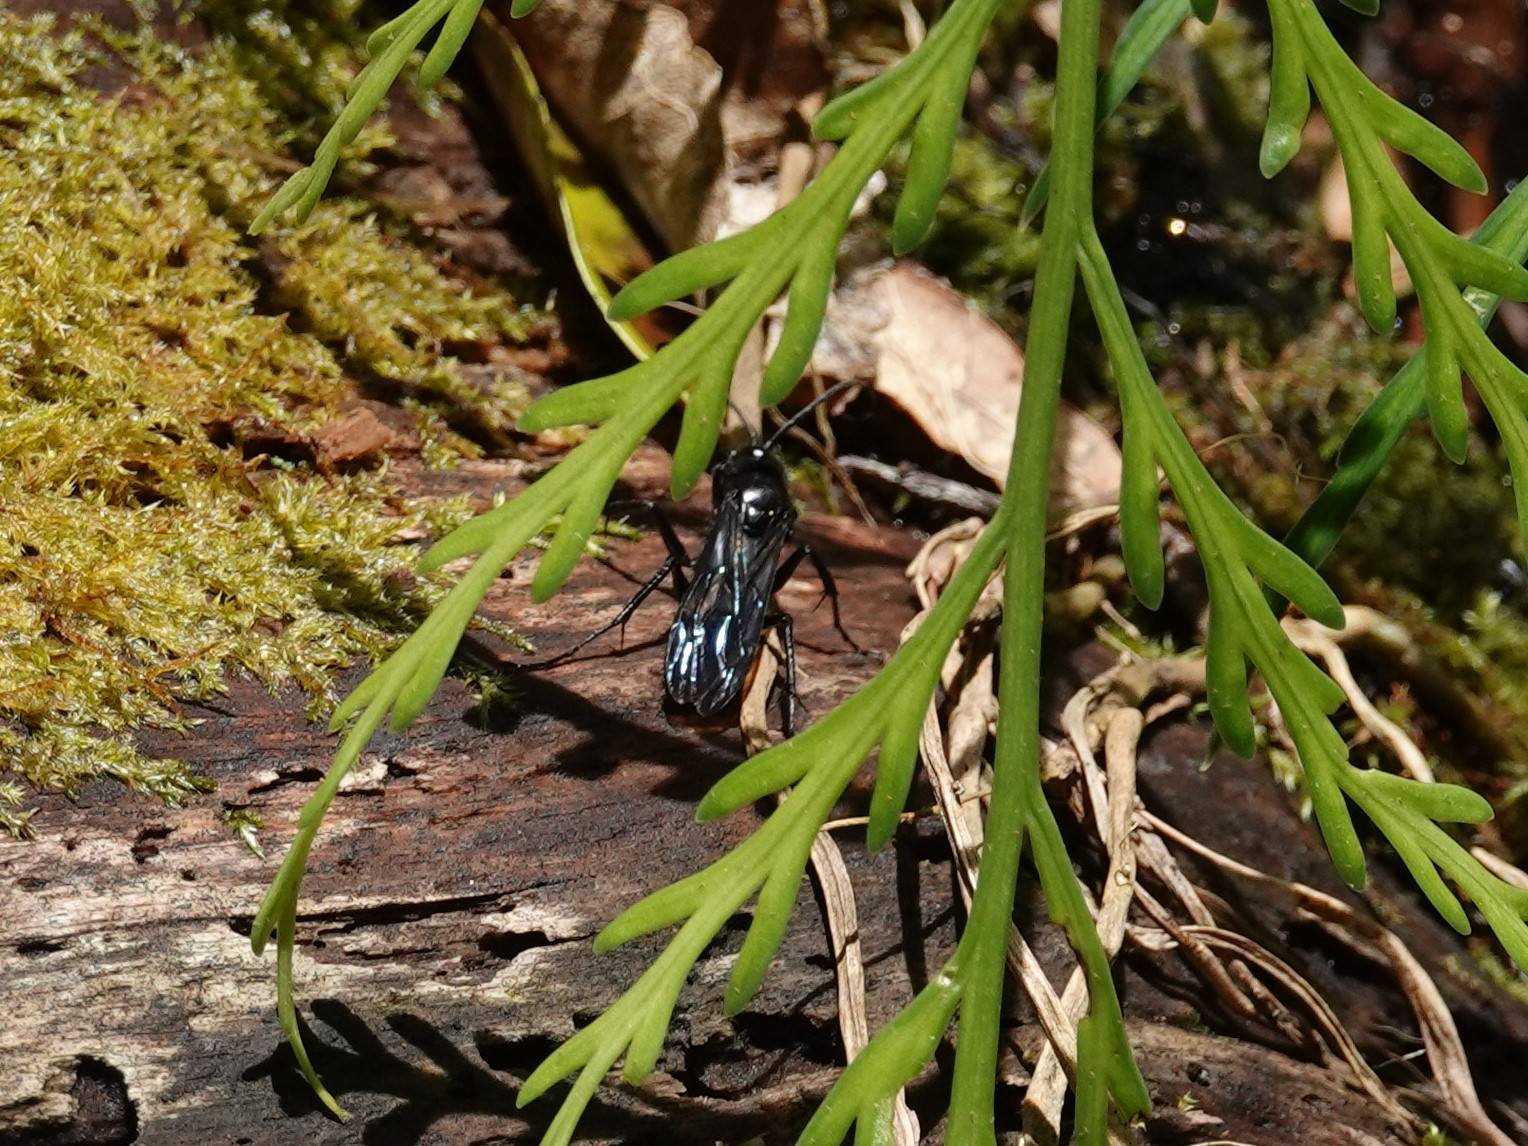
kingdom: Animalia
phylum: Arthropoda
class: Insecta
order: Hymenoptera
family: Pompilidae
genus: Priocnemis
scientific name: Priocnemis monachus
